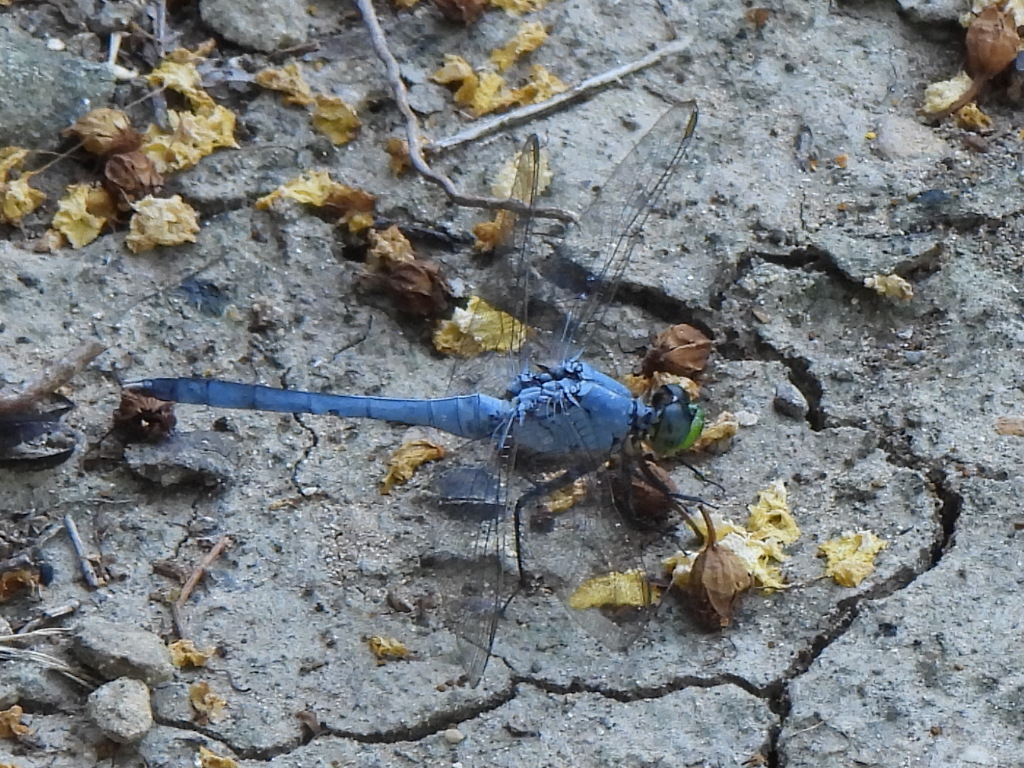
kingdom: Animalia
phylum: Arthropoda
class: Insecta
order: Odonata
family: Libellulidae
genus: Erythemis
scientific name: Erythemis simplicicollis
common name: Eastern pondhawk
